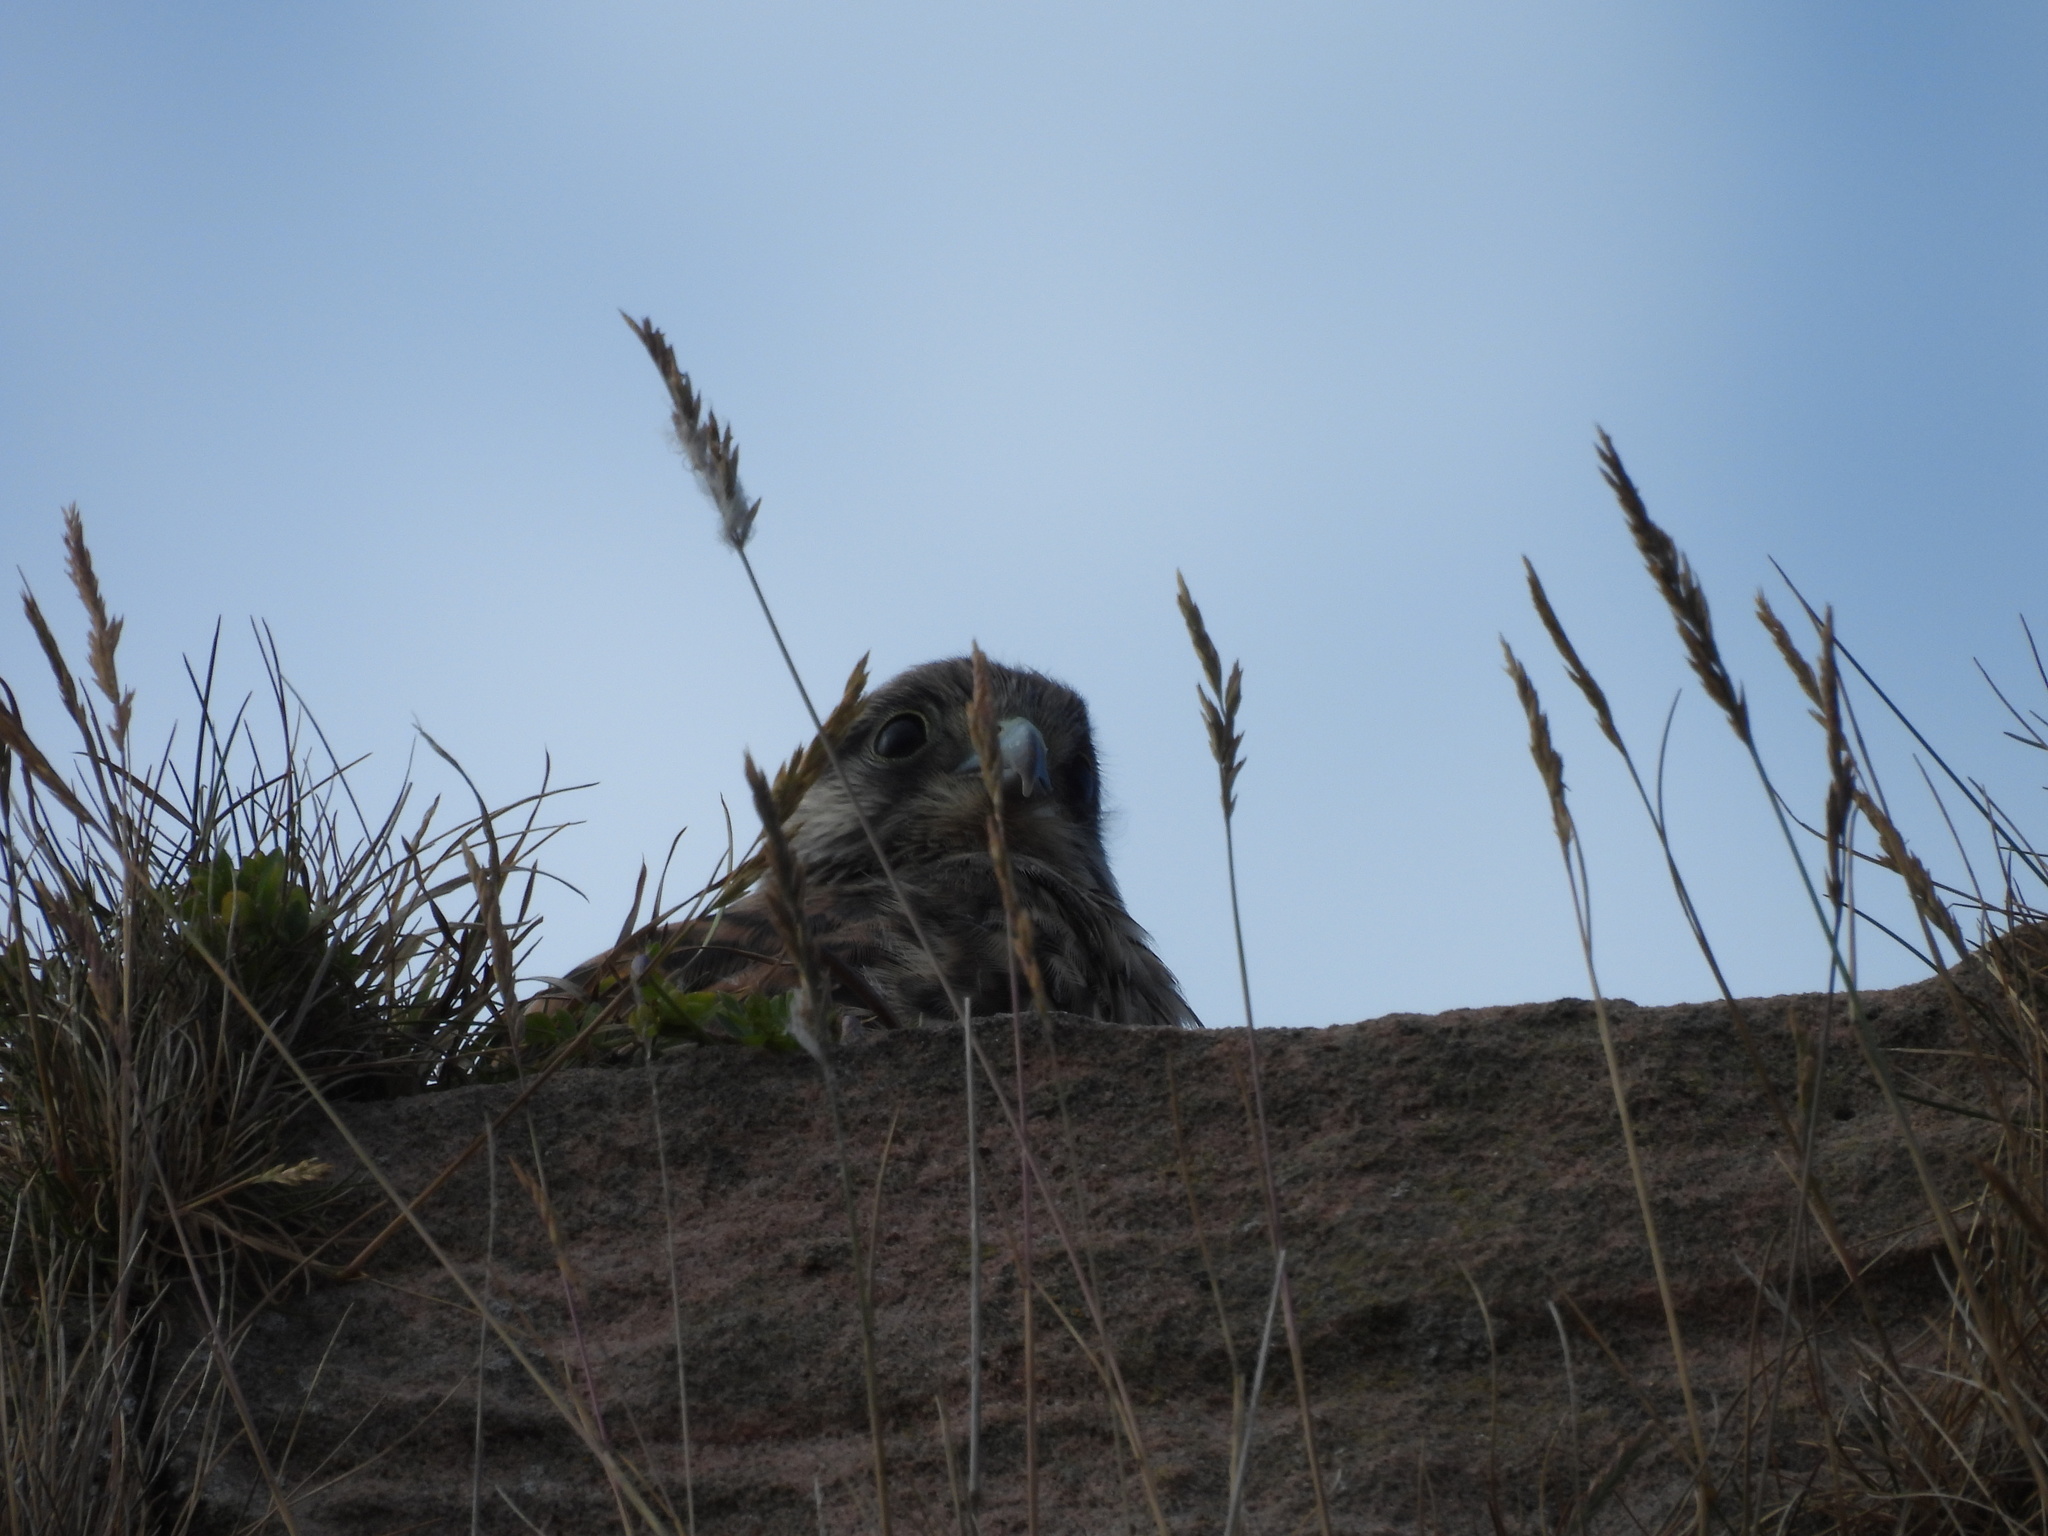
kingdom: Animalia
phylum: Chordata
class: Aves
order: Falconiformes
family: Falconidae
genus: Falco
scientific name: Falco tinnunculus
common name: Common kestrel
